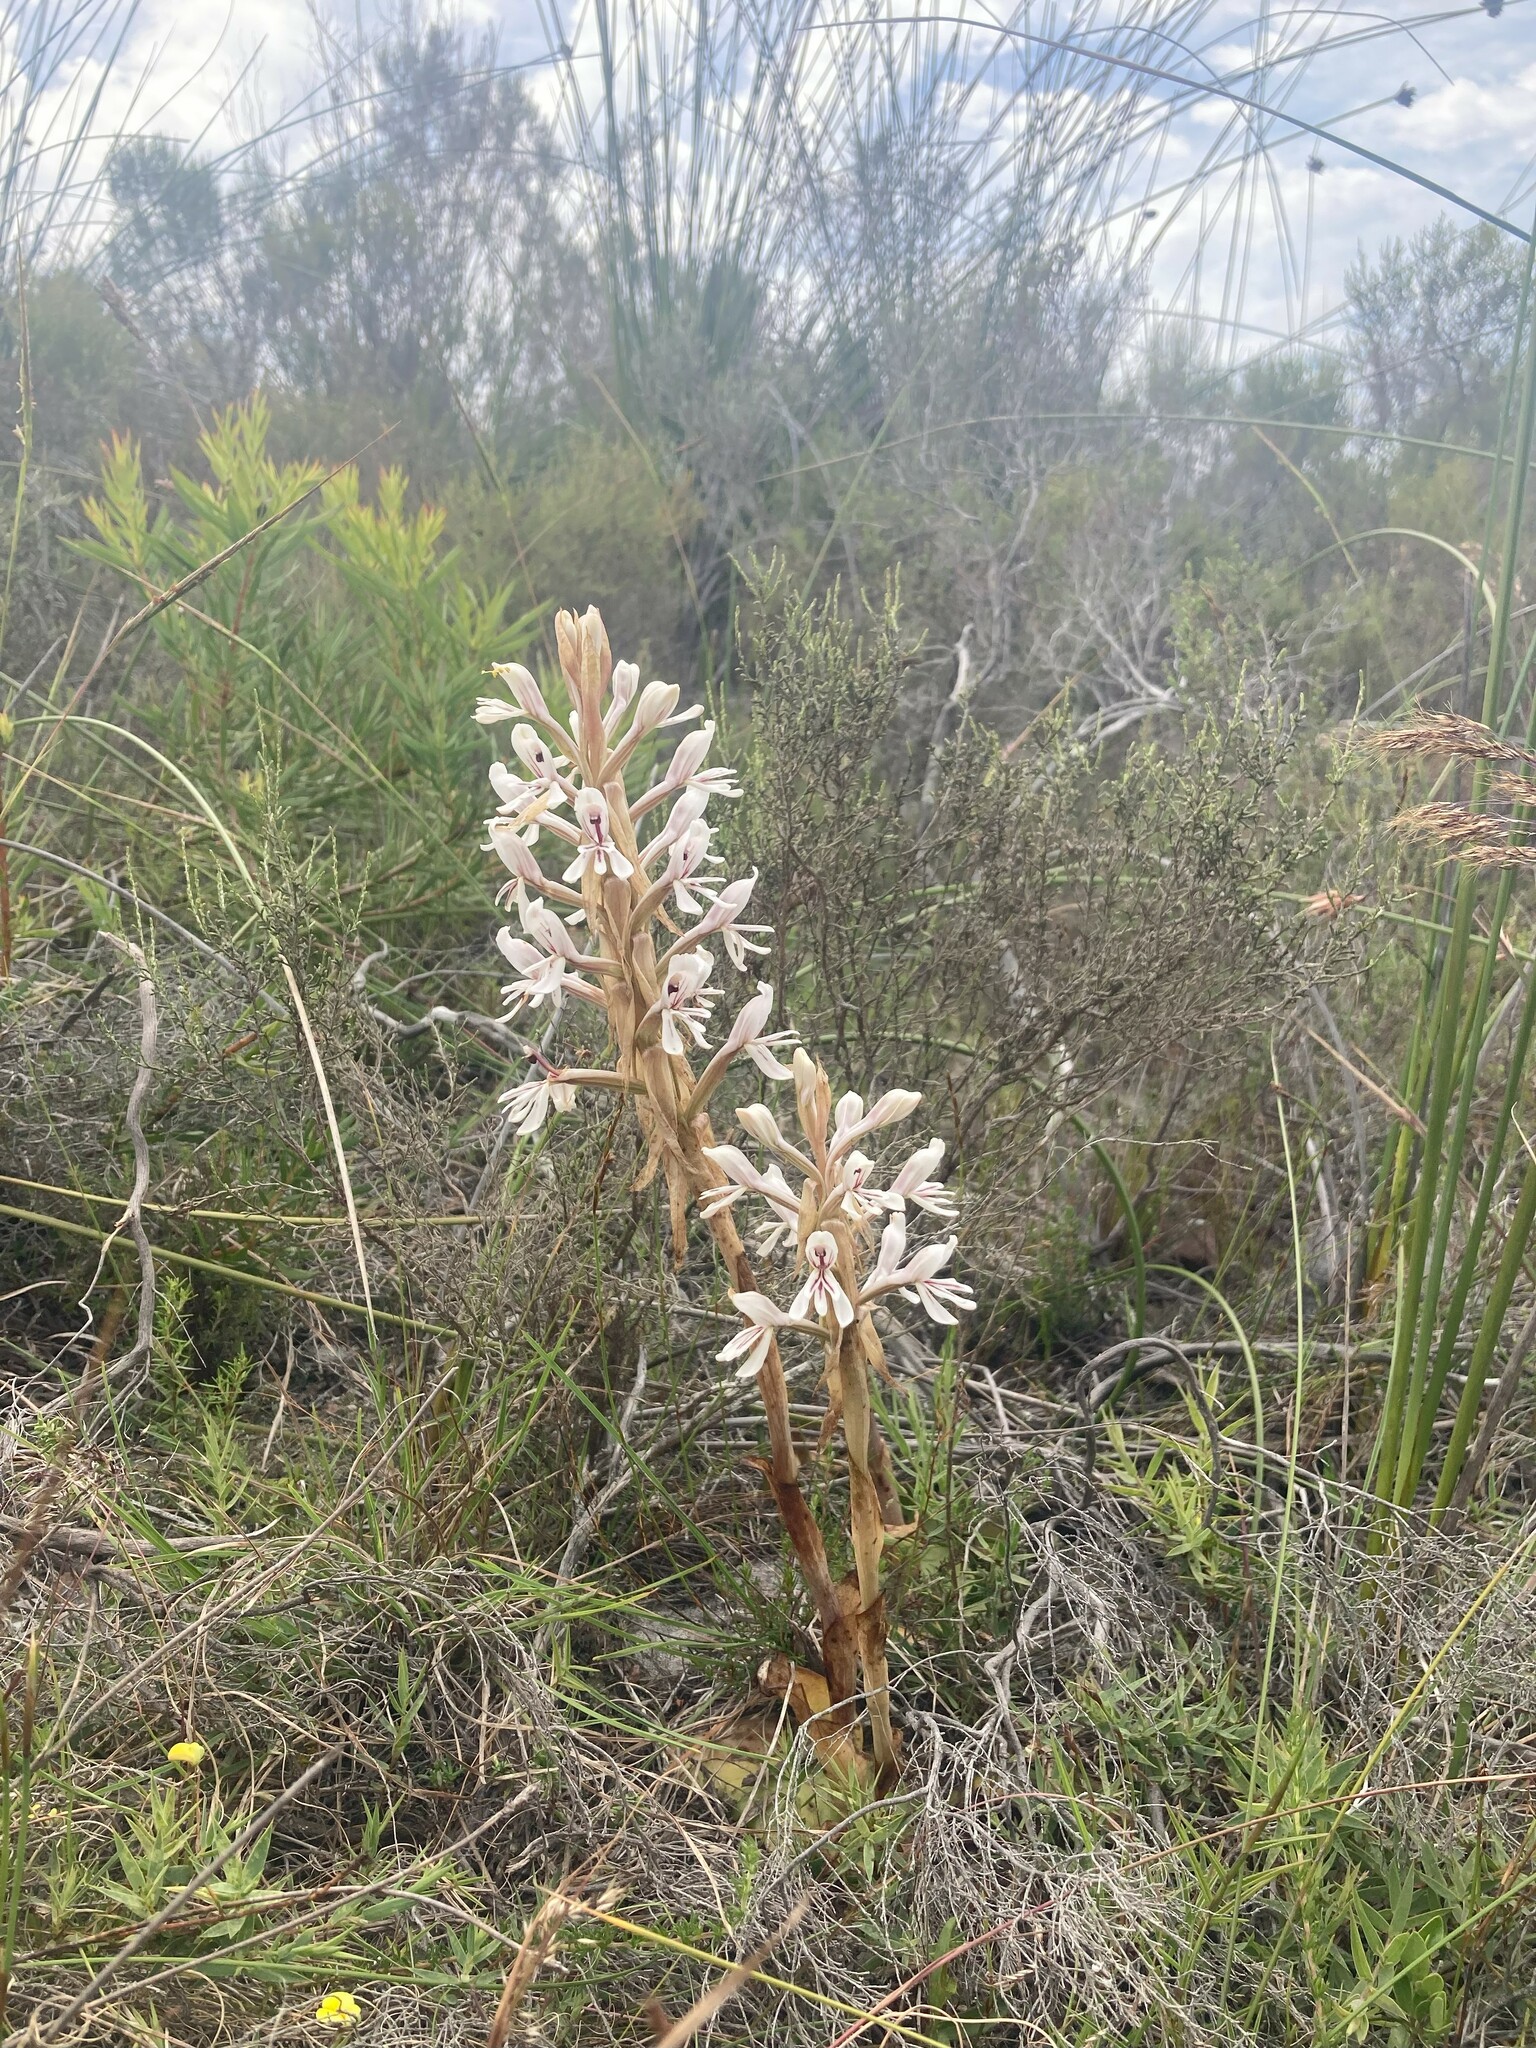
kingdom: Plantae
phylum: Tracheophyta
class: Liliopsida
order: Asparagales
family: Orchidaceae
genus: Satyrium
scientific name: Satyrium longicolle
